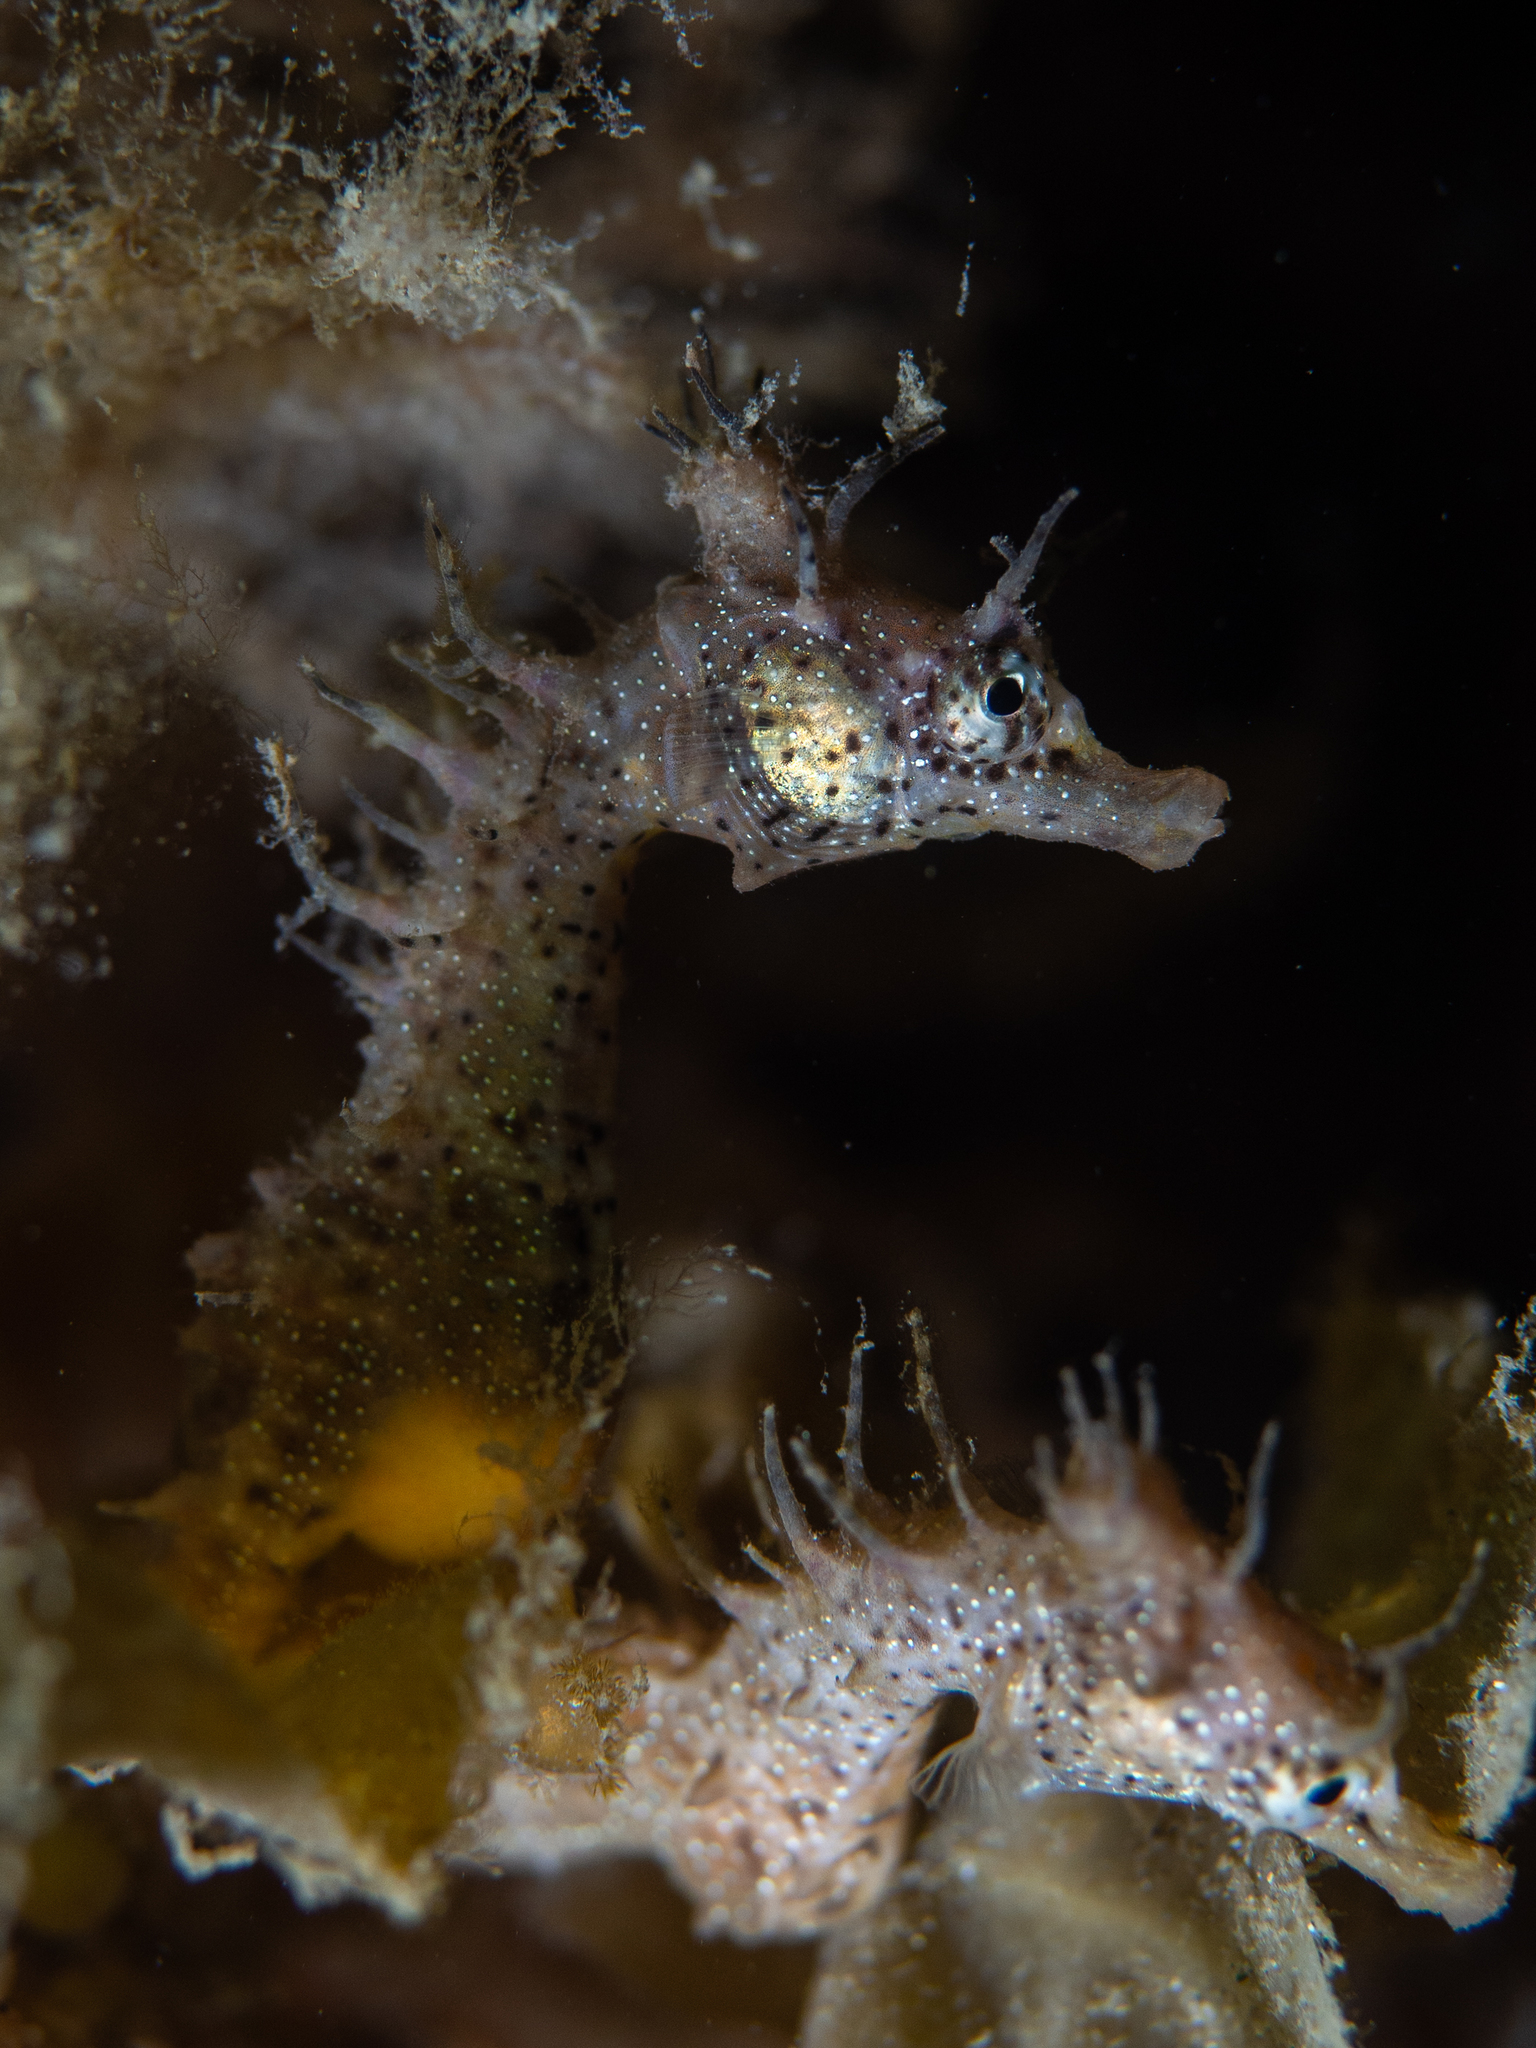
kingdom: Animalia
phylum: Chordata
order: Syngnathiformes
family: Syngnathidae
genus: Hippocampus
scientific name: Hippocampus breviceps
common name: Knobby seahorse
